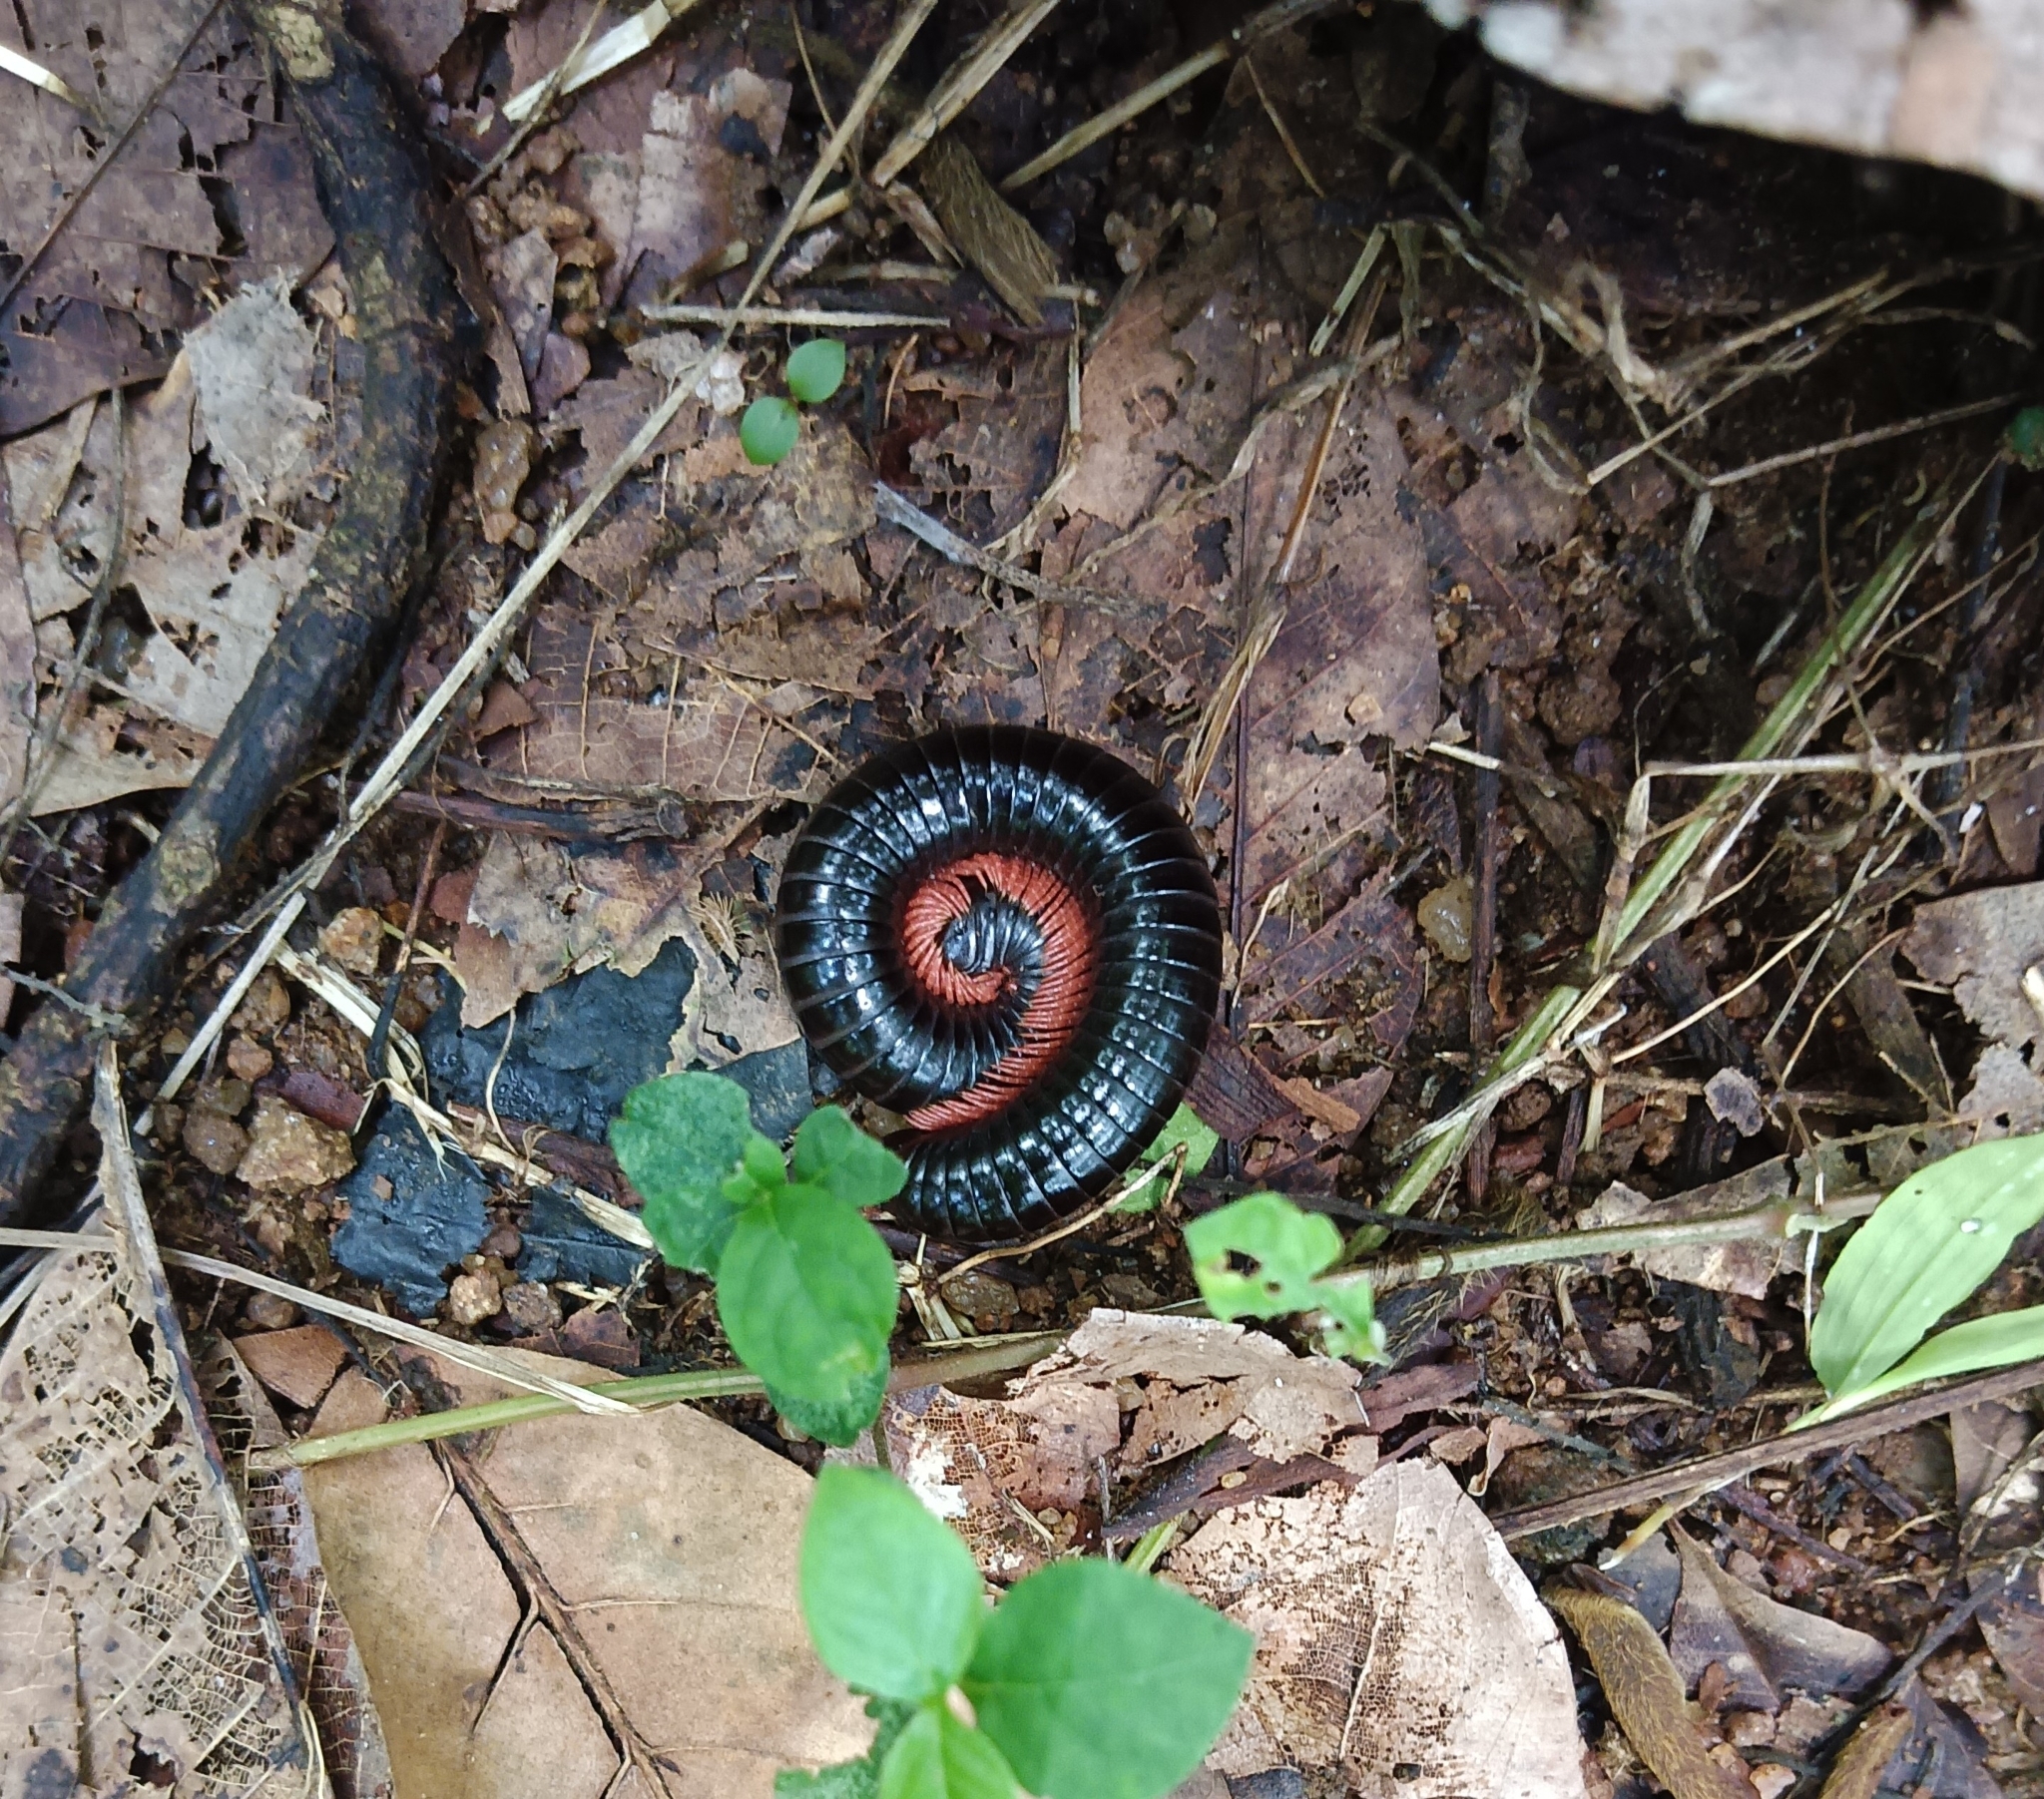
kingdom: Animalia
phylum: Arthropoda
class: Diplopoda
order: Spirostreptida
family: Harpagophoridae
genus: Phyllogonostreptus
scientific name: Phyllogonostreptus nigrolabiatus
